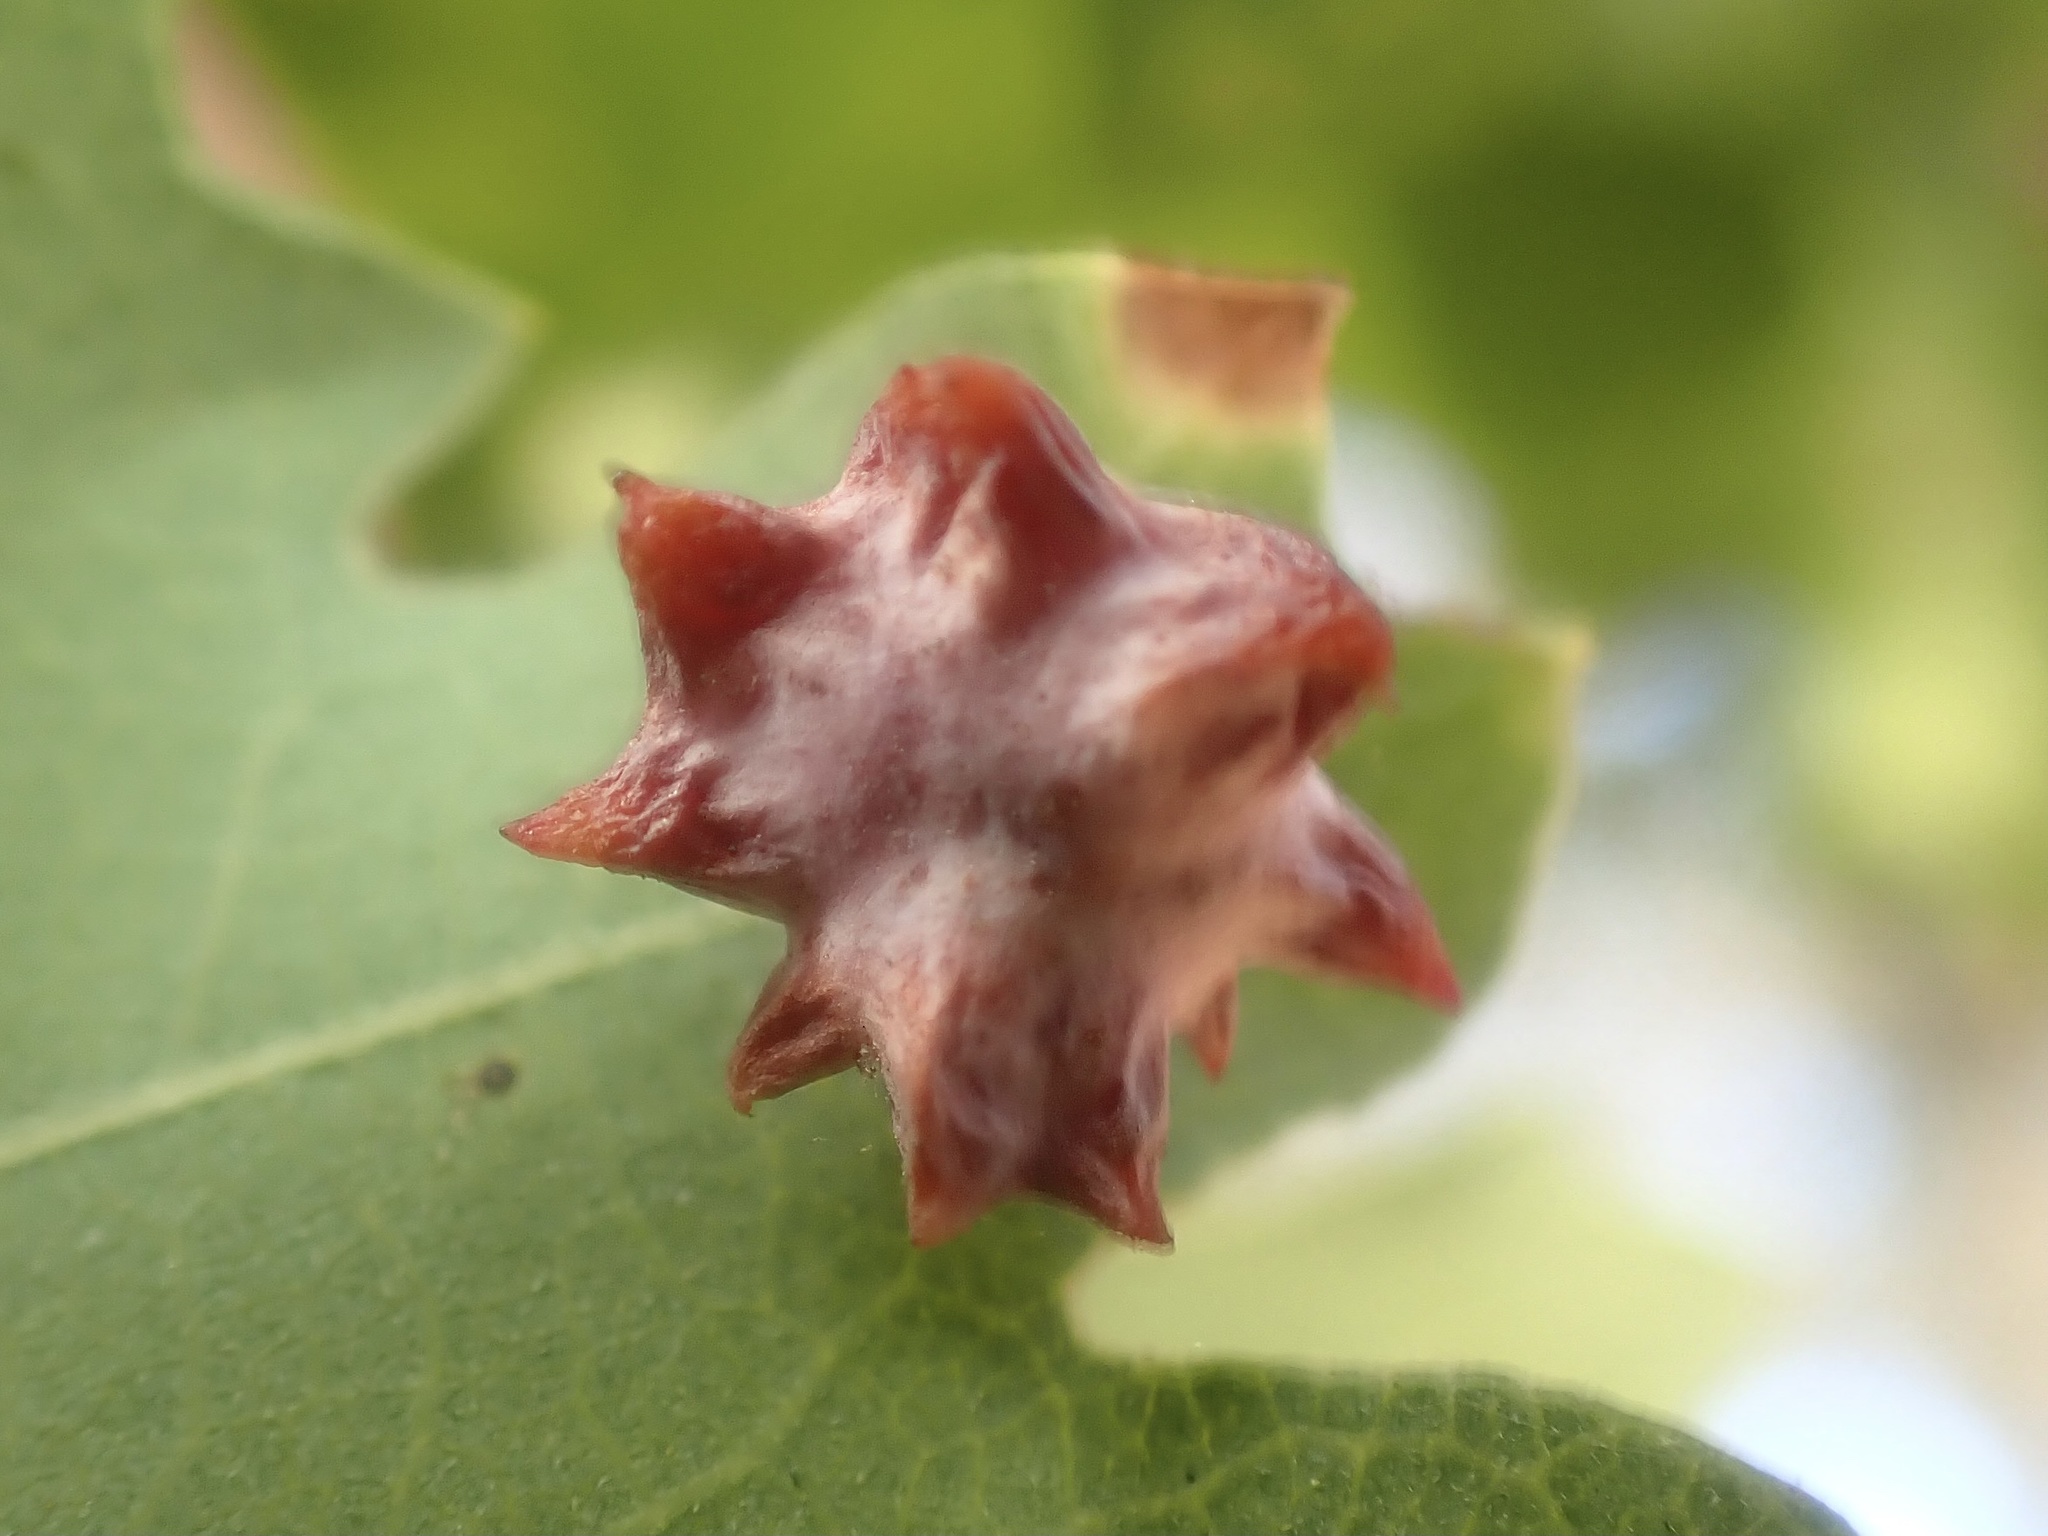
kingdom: Animalia
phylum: Arthropoda
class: Insecta
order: Hymenoptera
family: Cynipidae
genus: Cynips
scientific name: Cynips douglasi
